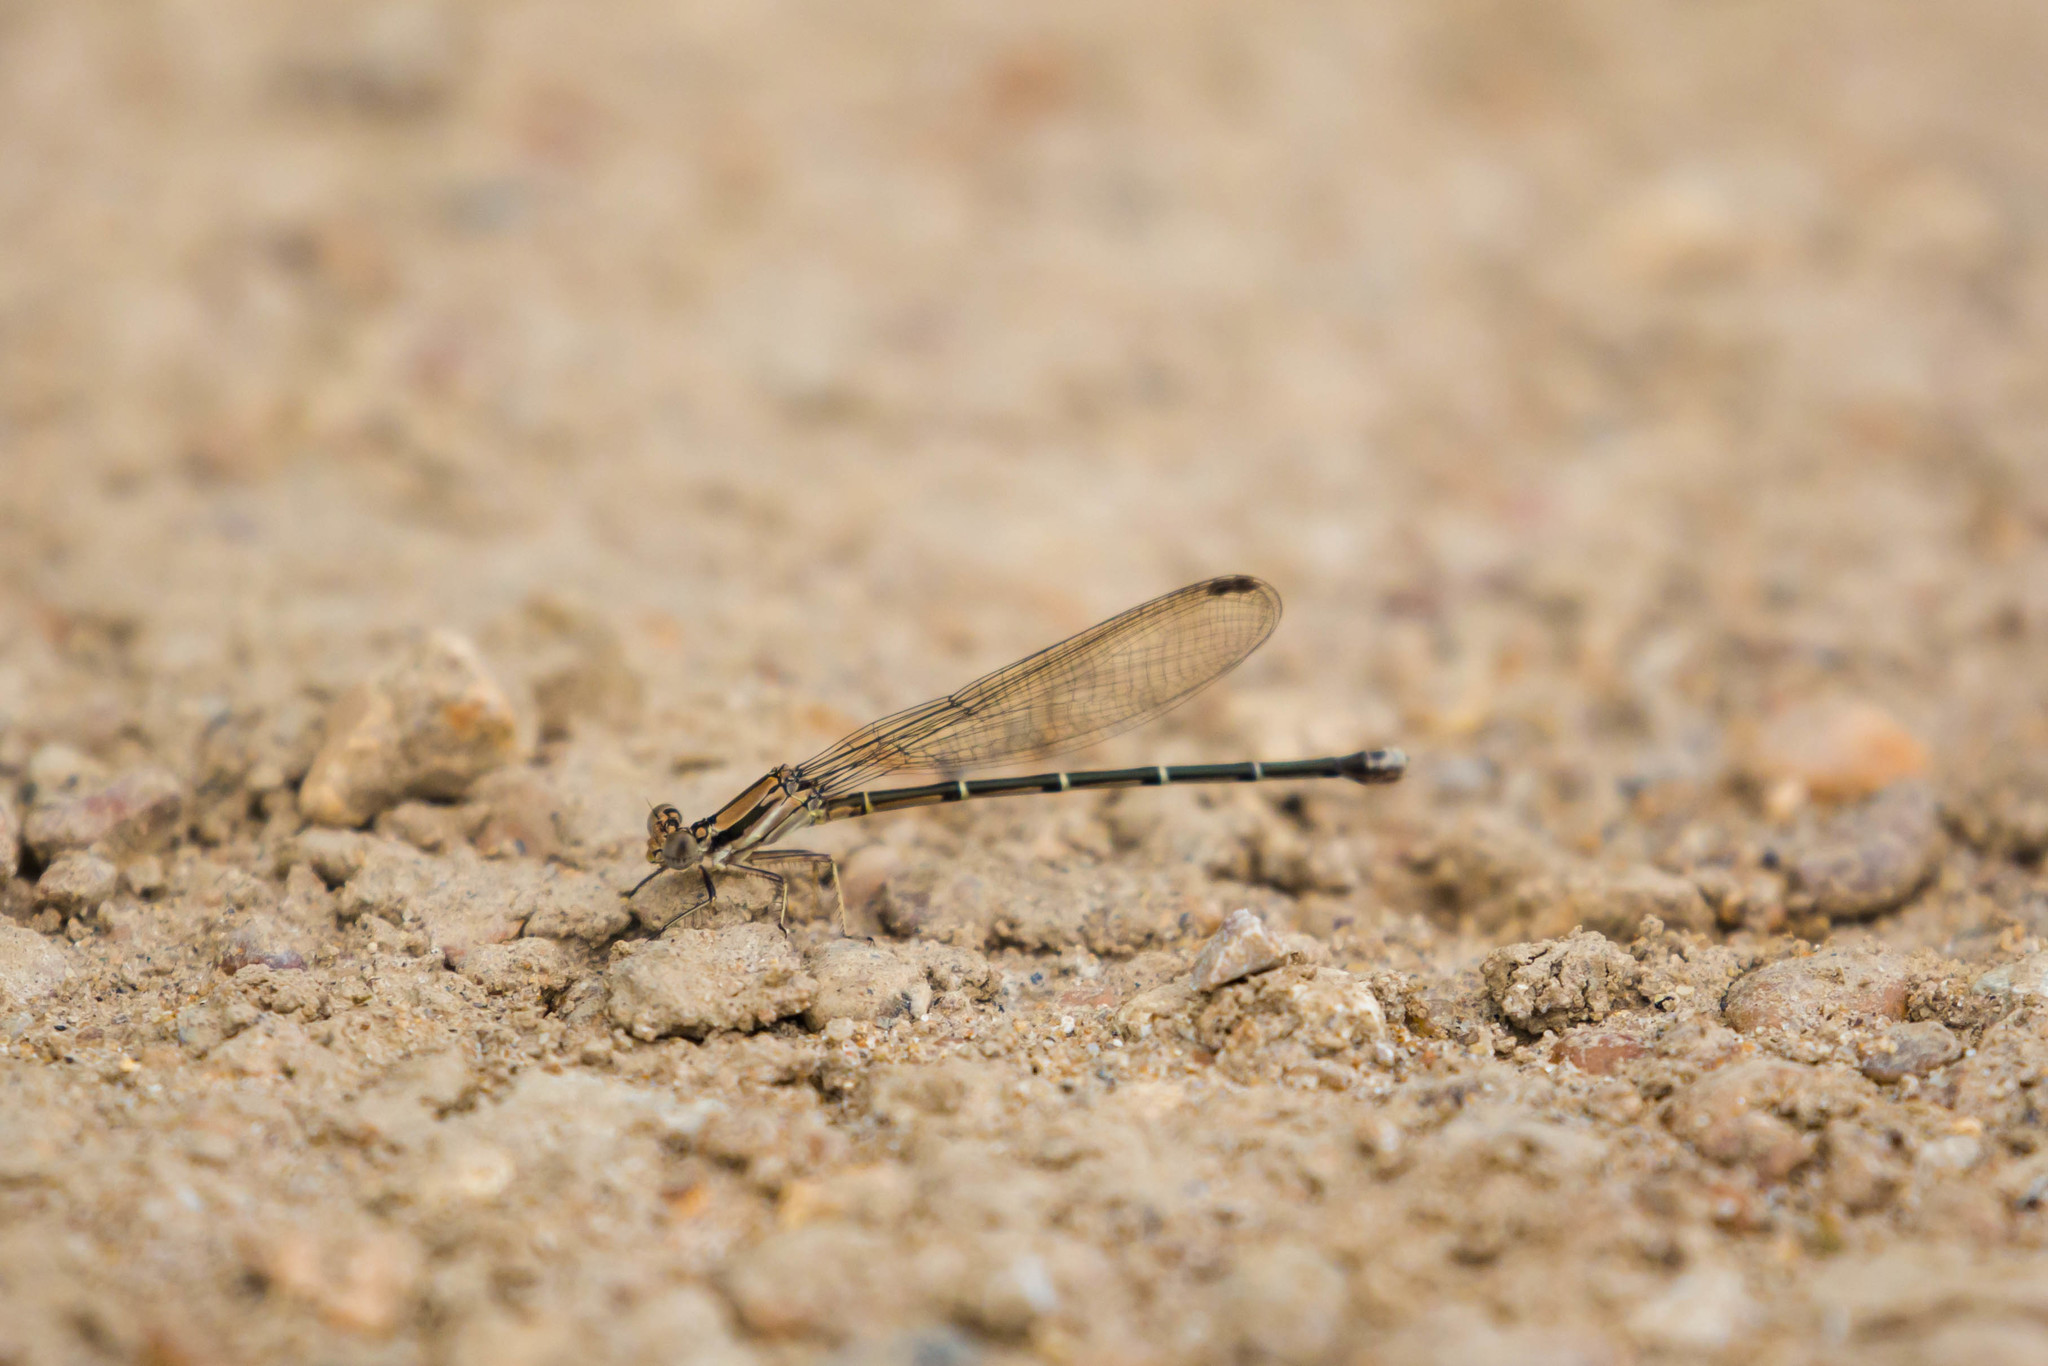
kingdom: Animalia
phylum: Arthropoda
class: Insecta
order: Odonata
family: Coenagrionidae
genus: Argia
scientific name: Argia tibialis
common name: Blue-tipped dancer
